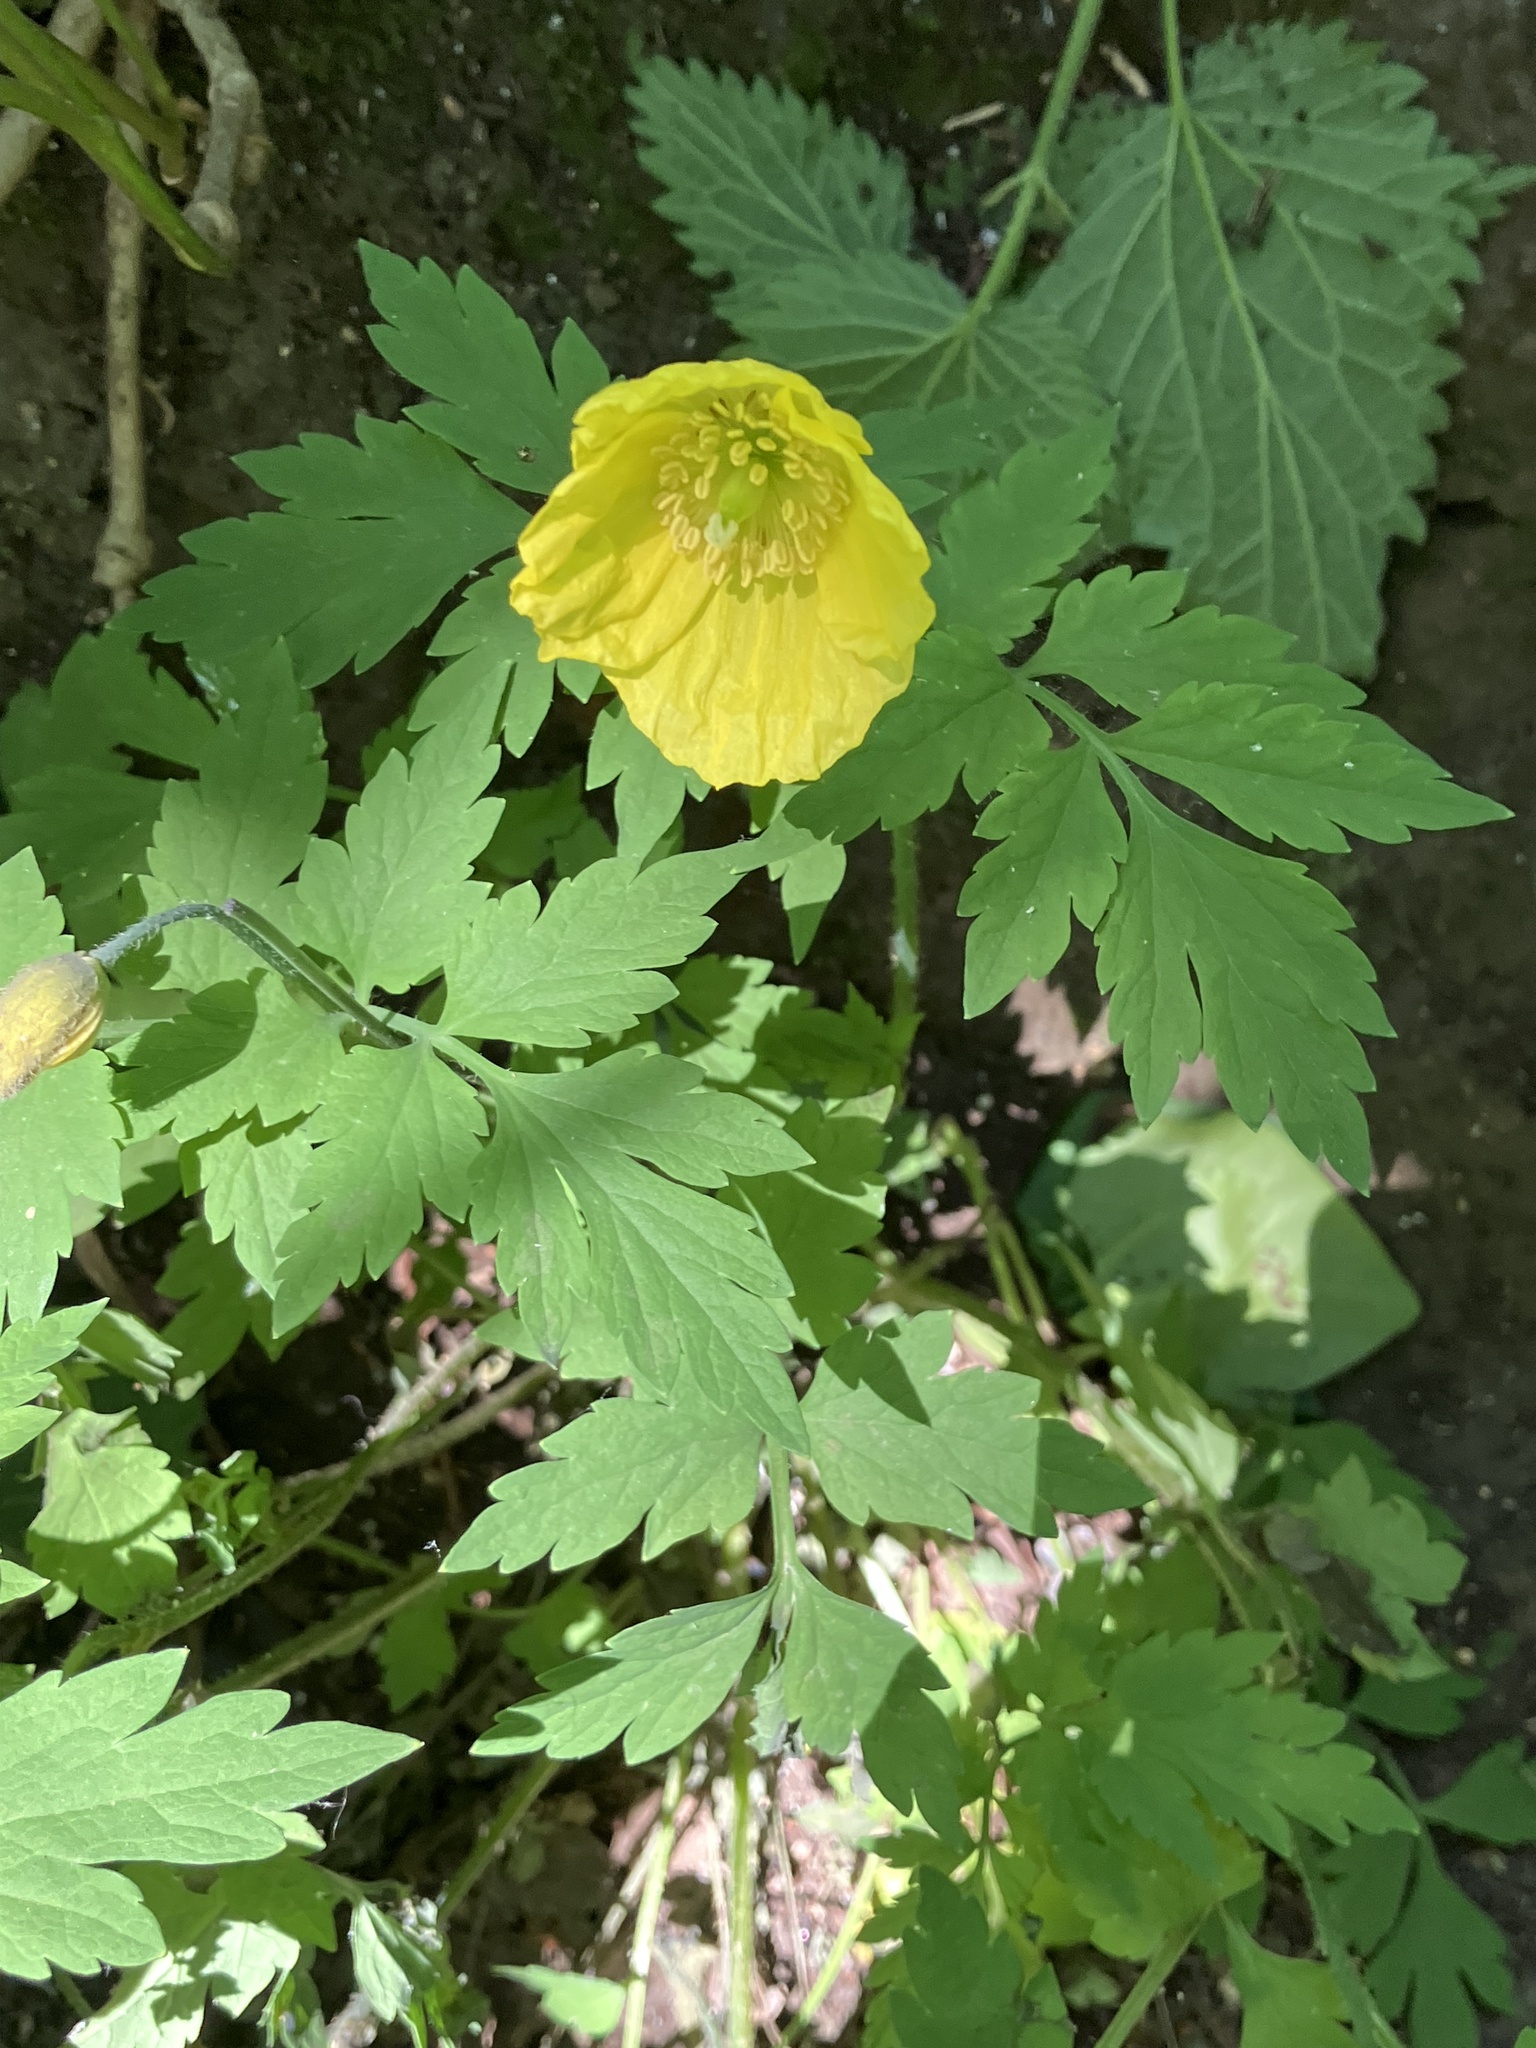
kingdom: Plantae
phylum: Tracheophyta
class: Magnoliopsida
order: Ranunculales
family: Papaveraceae
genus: Papaver
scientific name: Papaver cambricum
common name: Poppy
